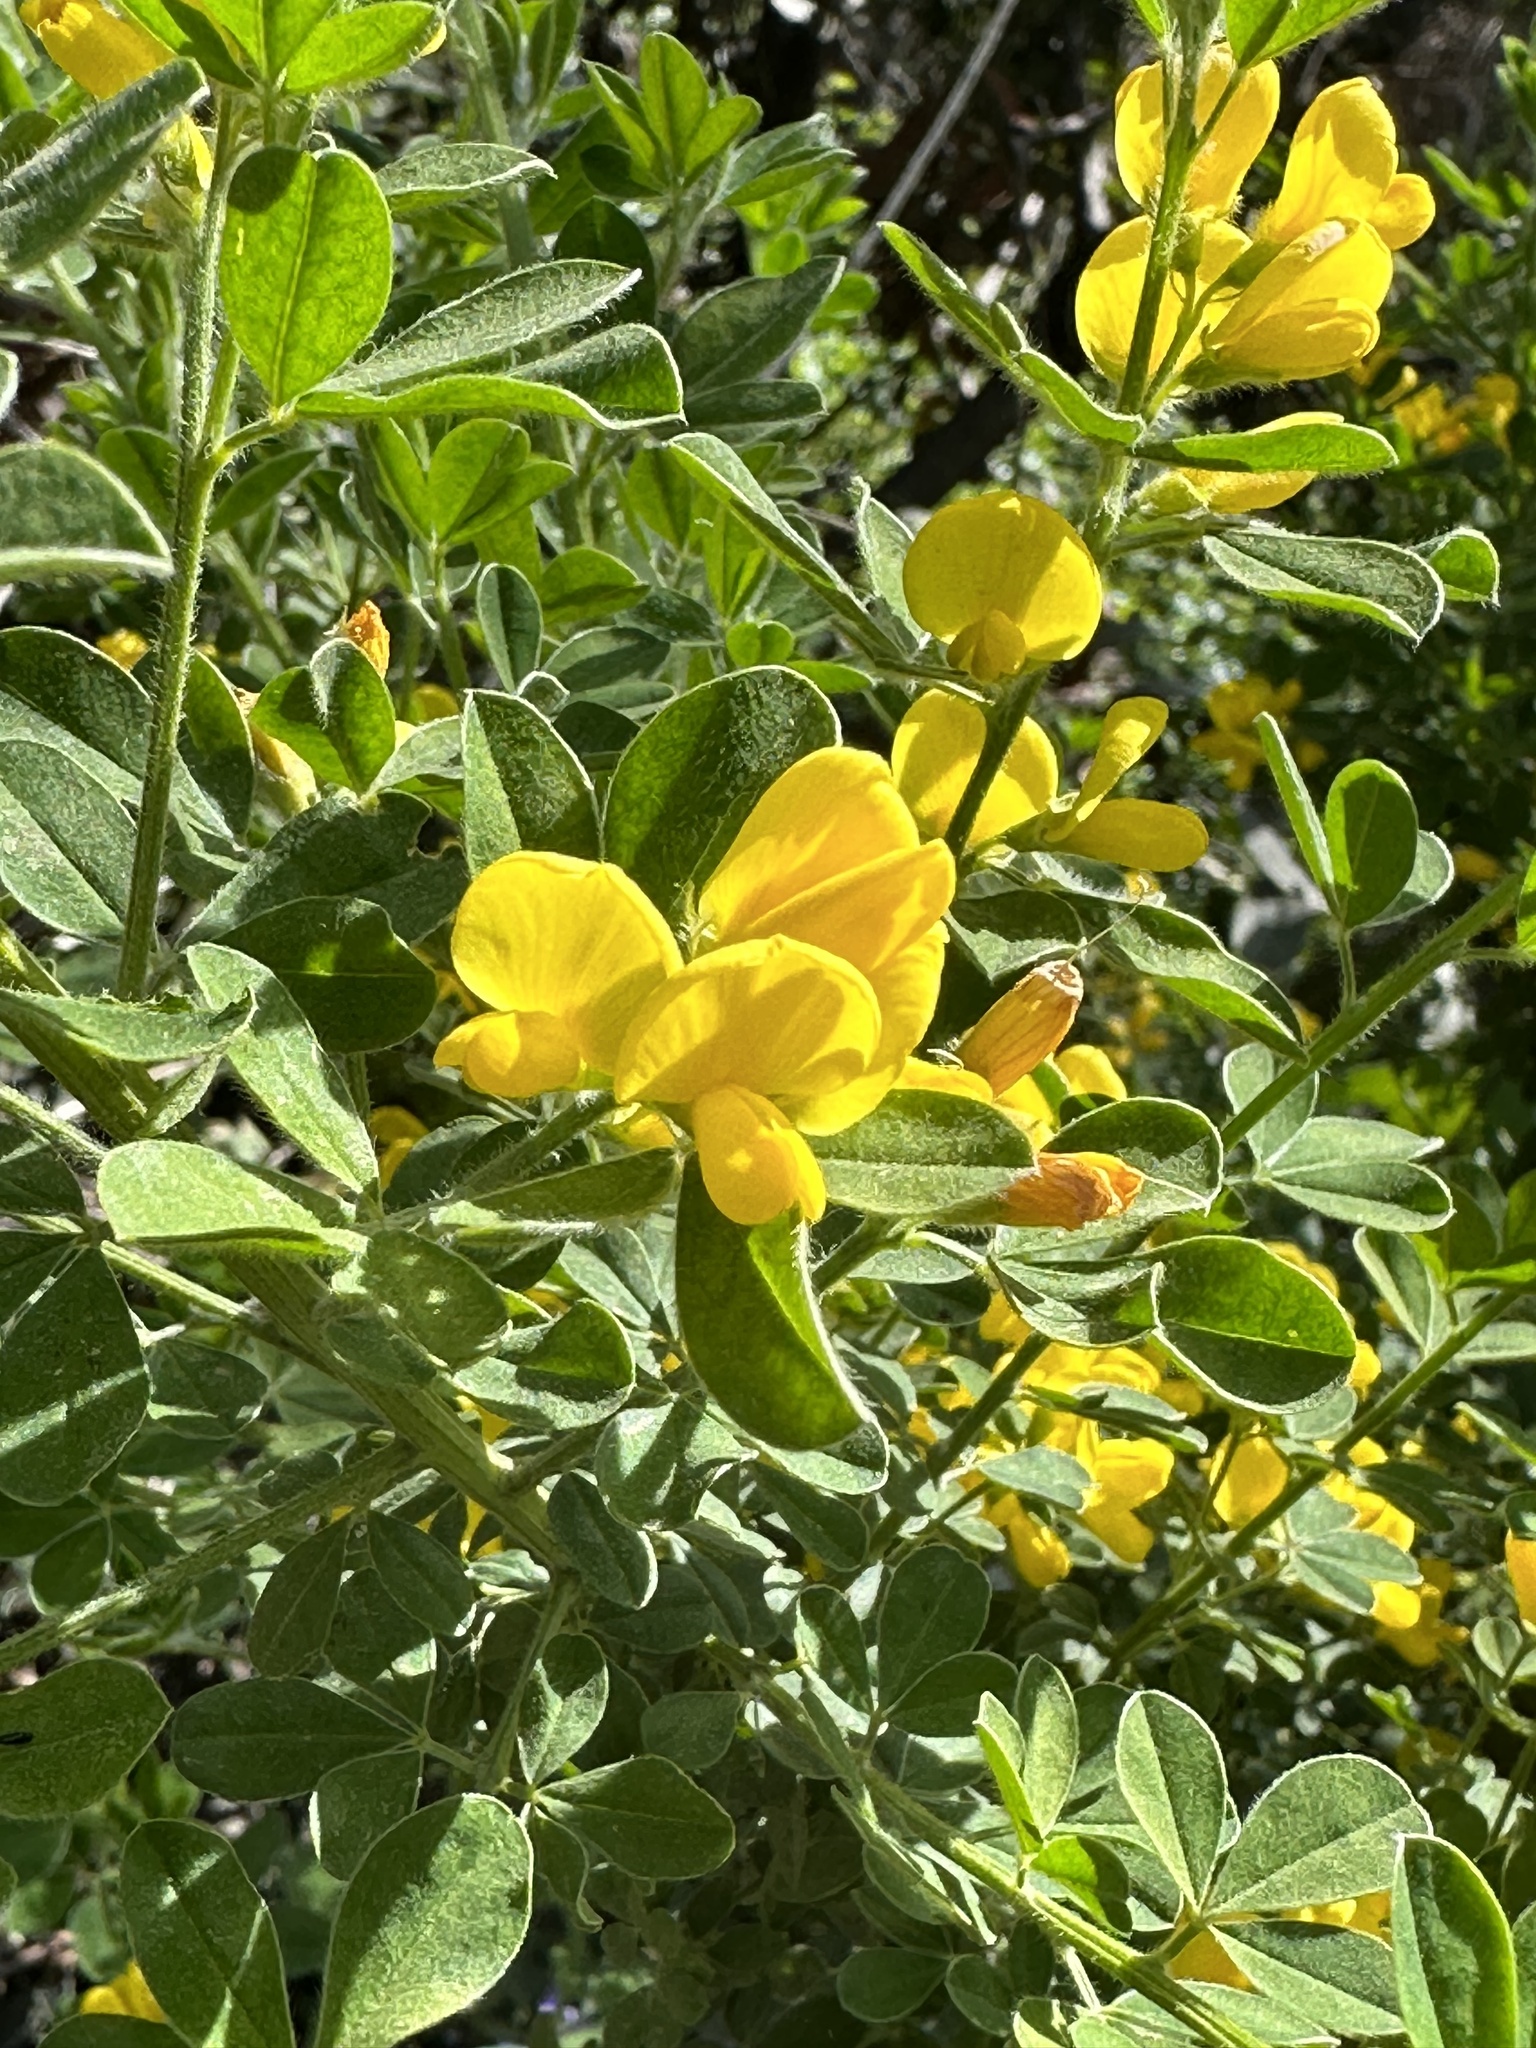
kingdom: Plantae
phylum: Tracheophyta
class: Magnoliopsida
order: Fabales
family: Fabaceae
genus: Genista
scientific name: Genista monspessulana
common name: Montpellier broom
